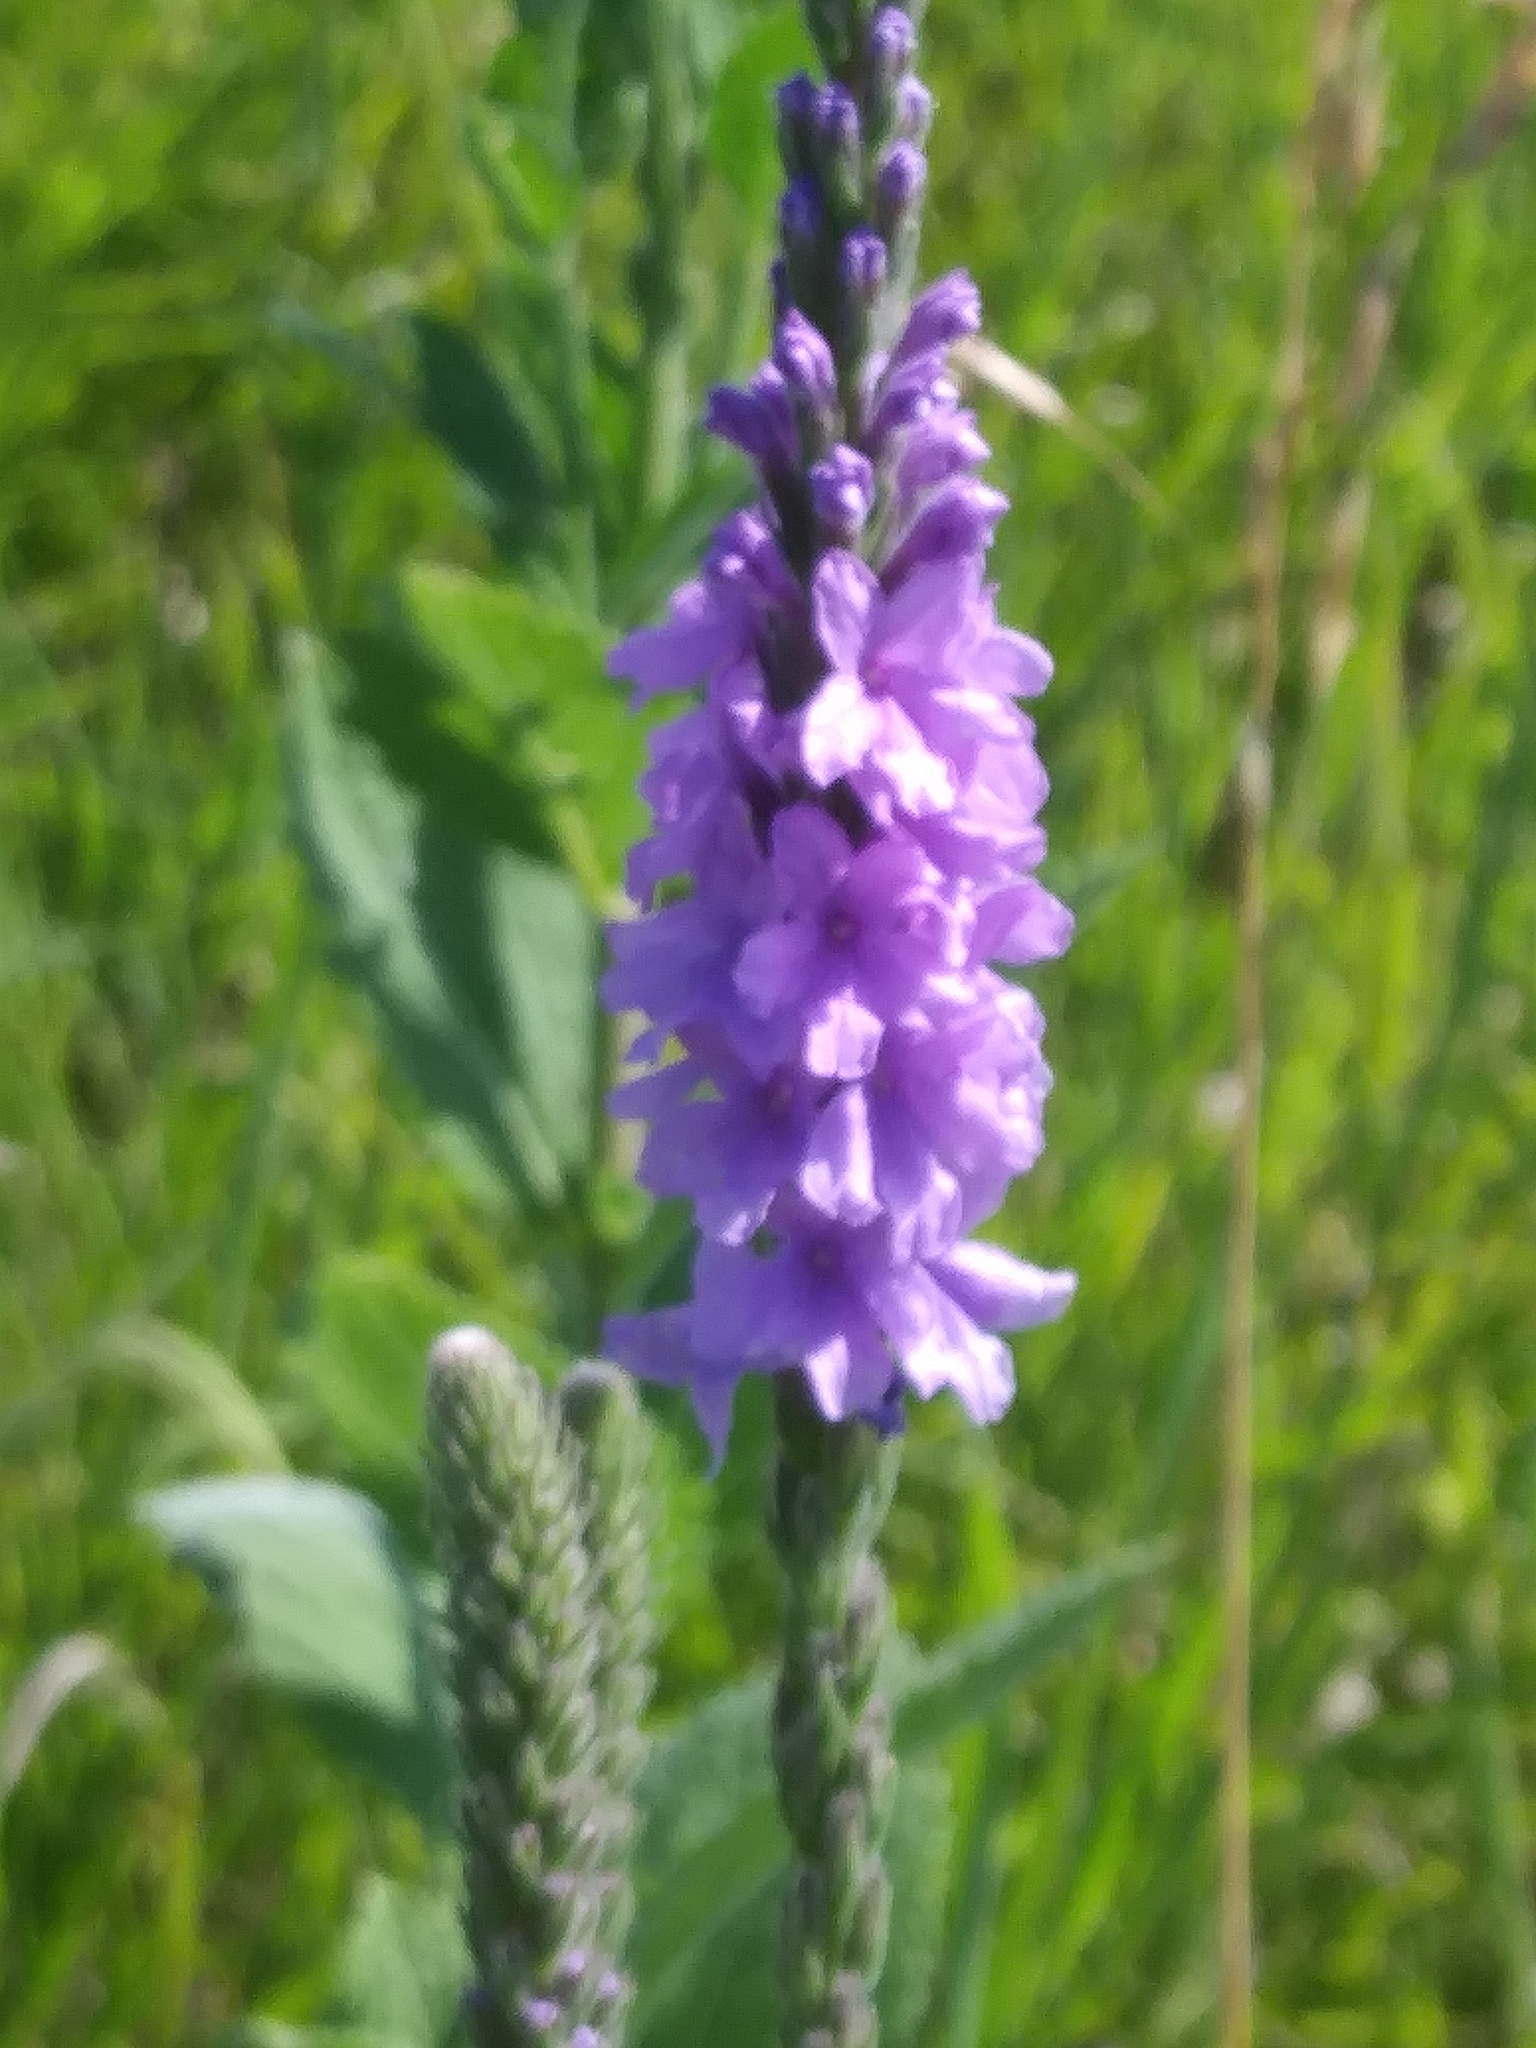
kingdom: Plantae
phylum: Tracheophyta
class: Magnoliopsida
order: Lamiales
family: Verbenaceae
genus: Verbena
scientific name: Verbena stricta
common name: Hoary vervain
